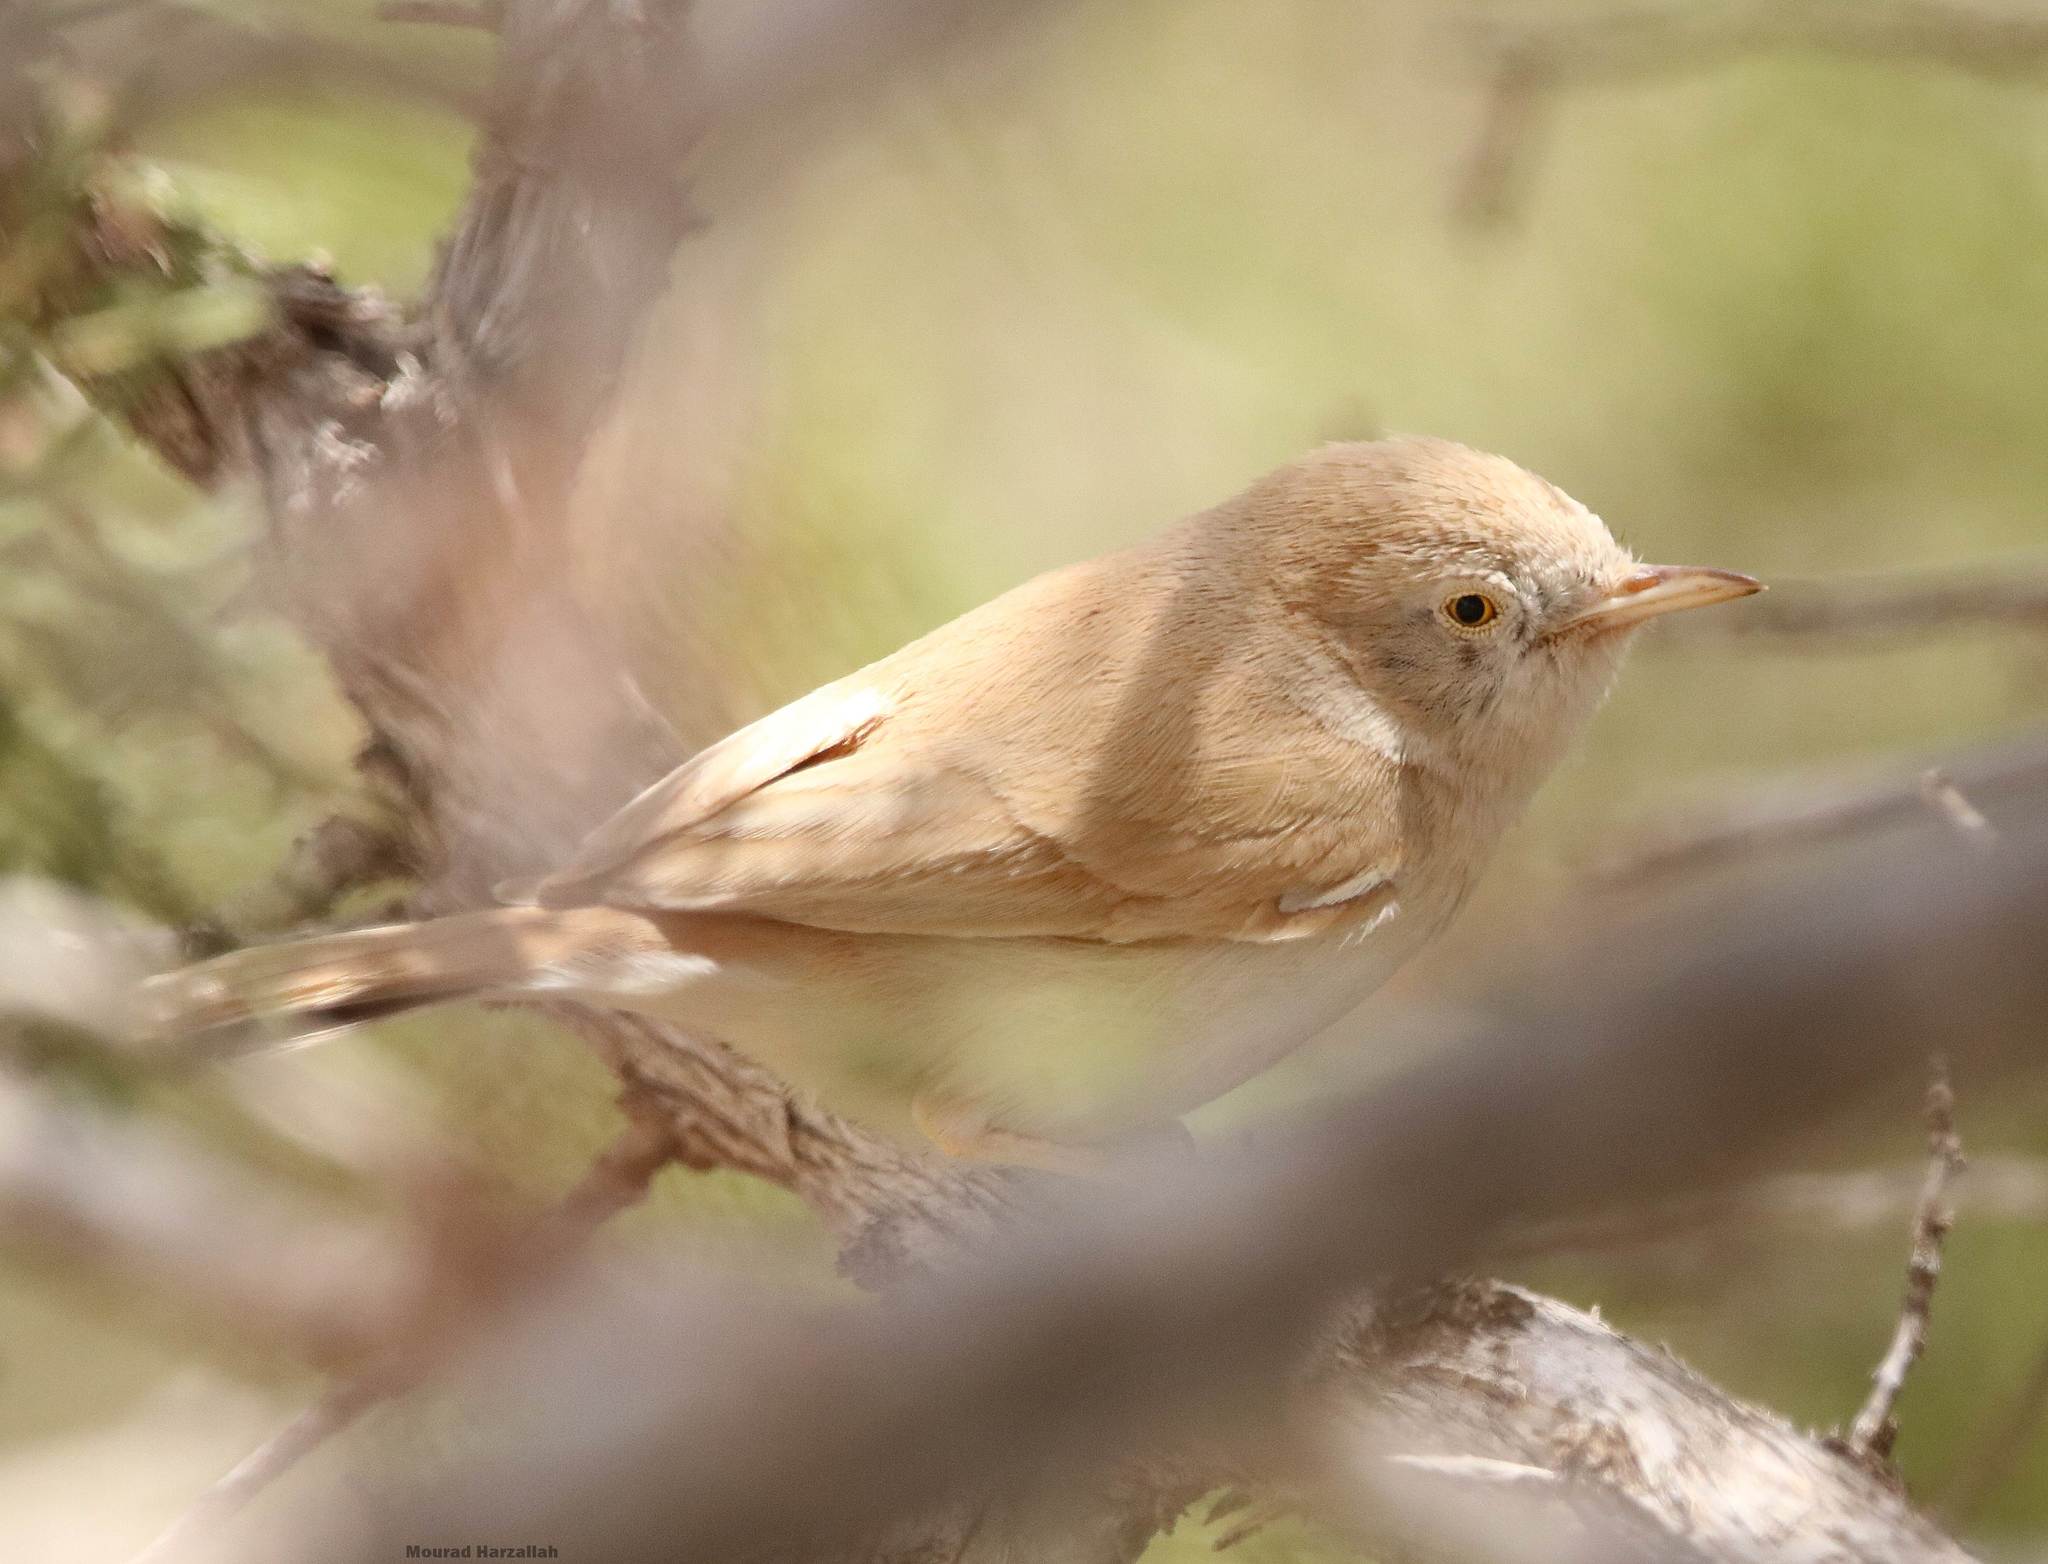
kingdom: Animalia
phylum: Chordata
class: Aves
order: Passeriformes
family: Sylviidae
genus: Sylvia
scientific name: Sylvia deserti
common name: African desert warbler
